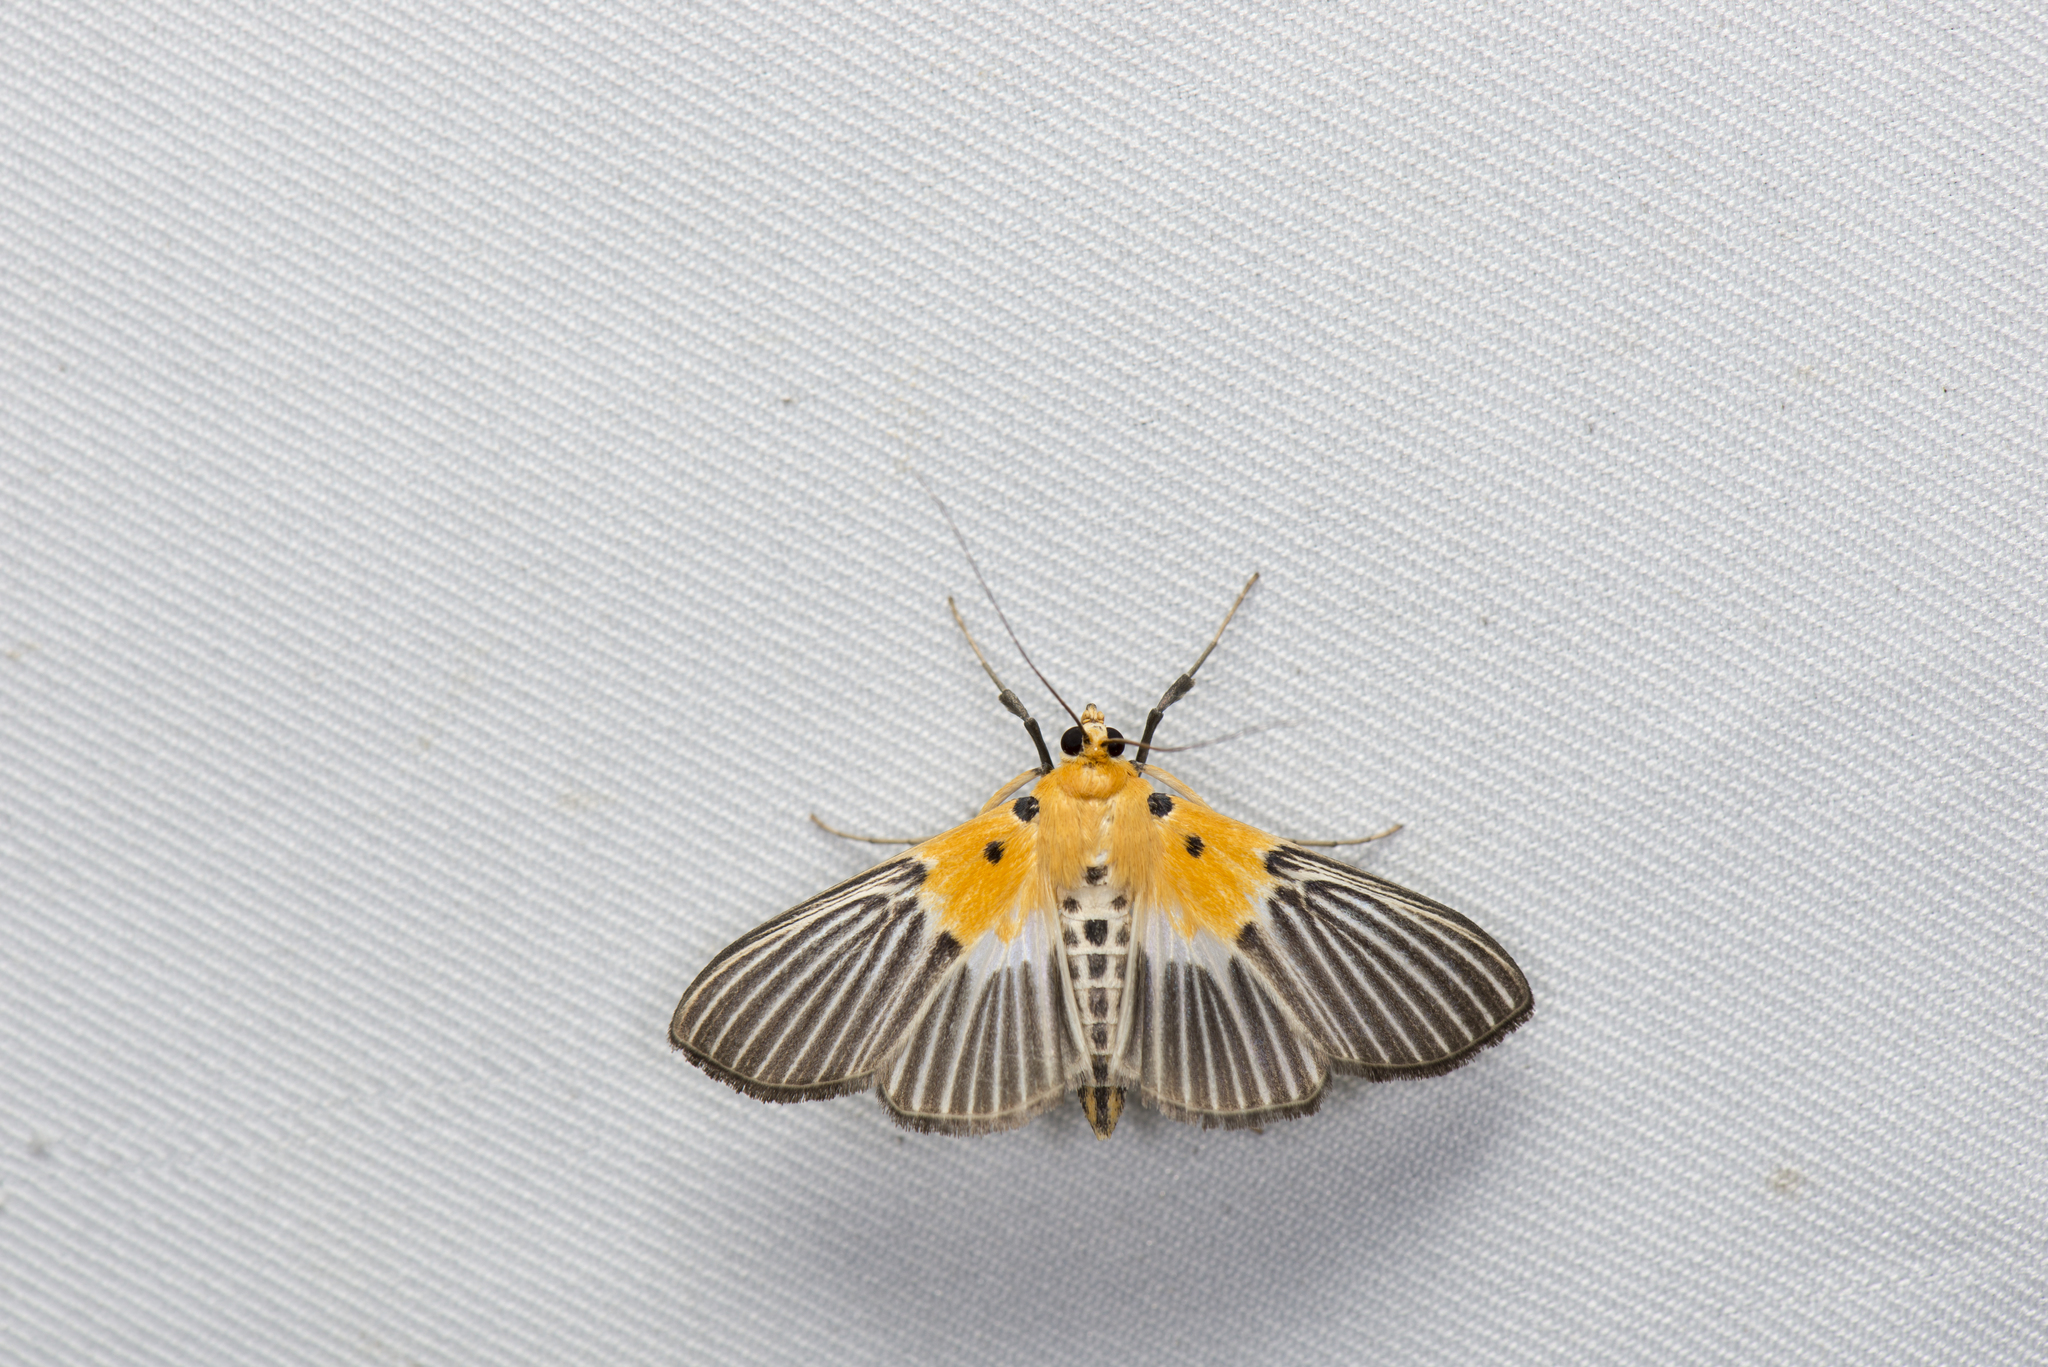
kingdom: Animalia
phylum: Arthropoda
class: Insecta
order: Lepidoptera
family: Crambidae
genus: Nevrina
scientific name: Nevrina procopia
